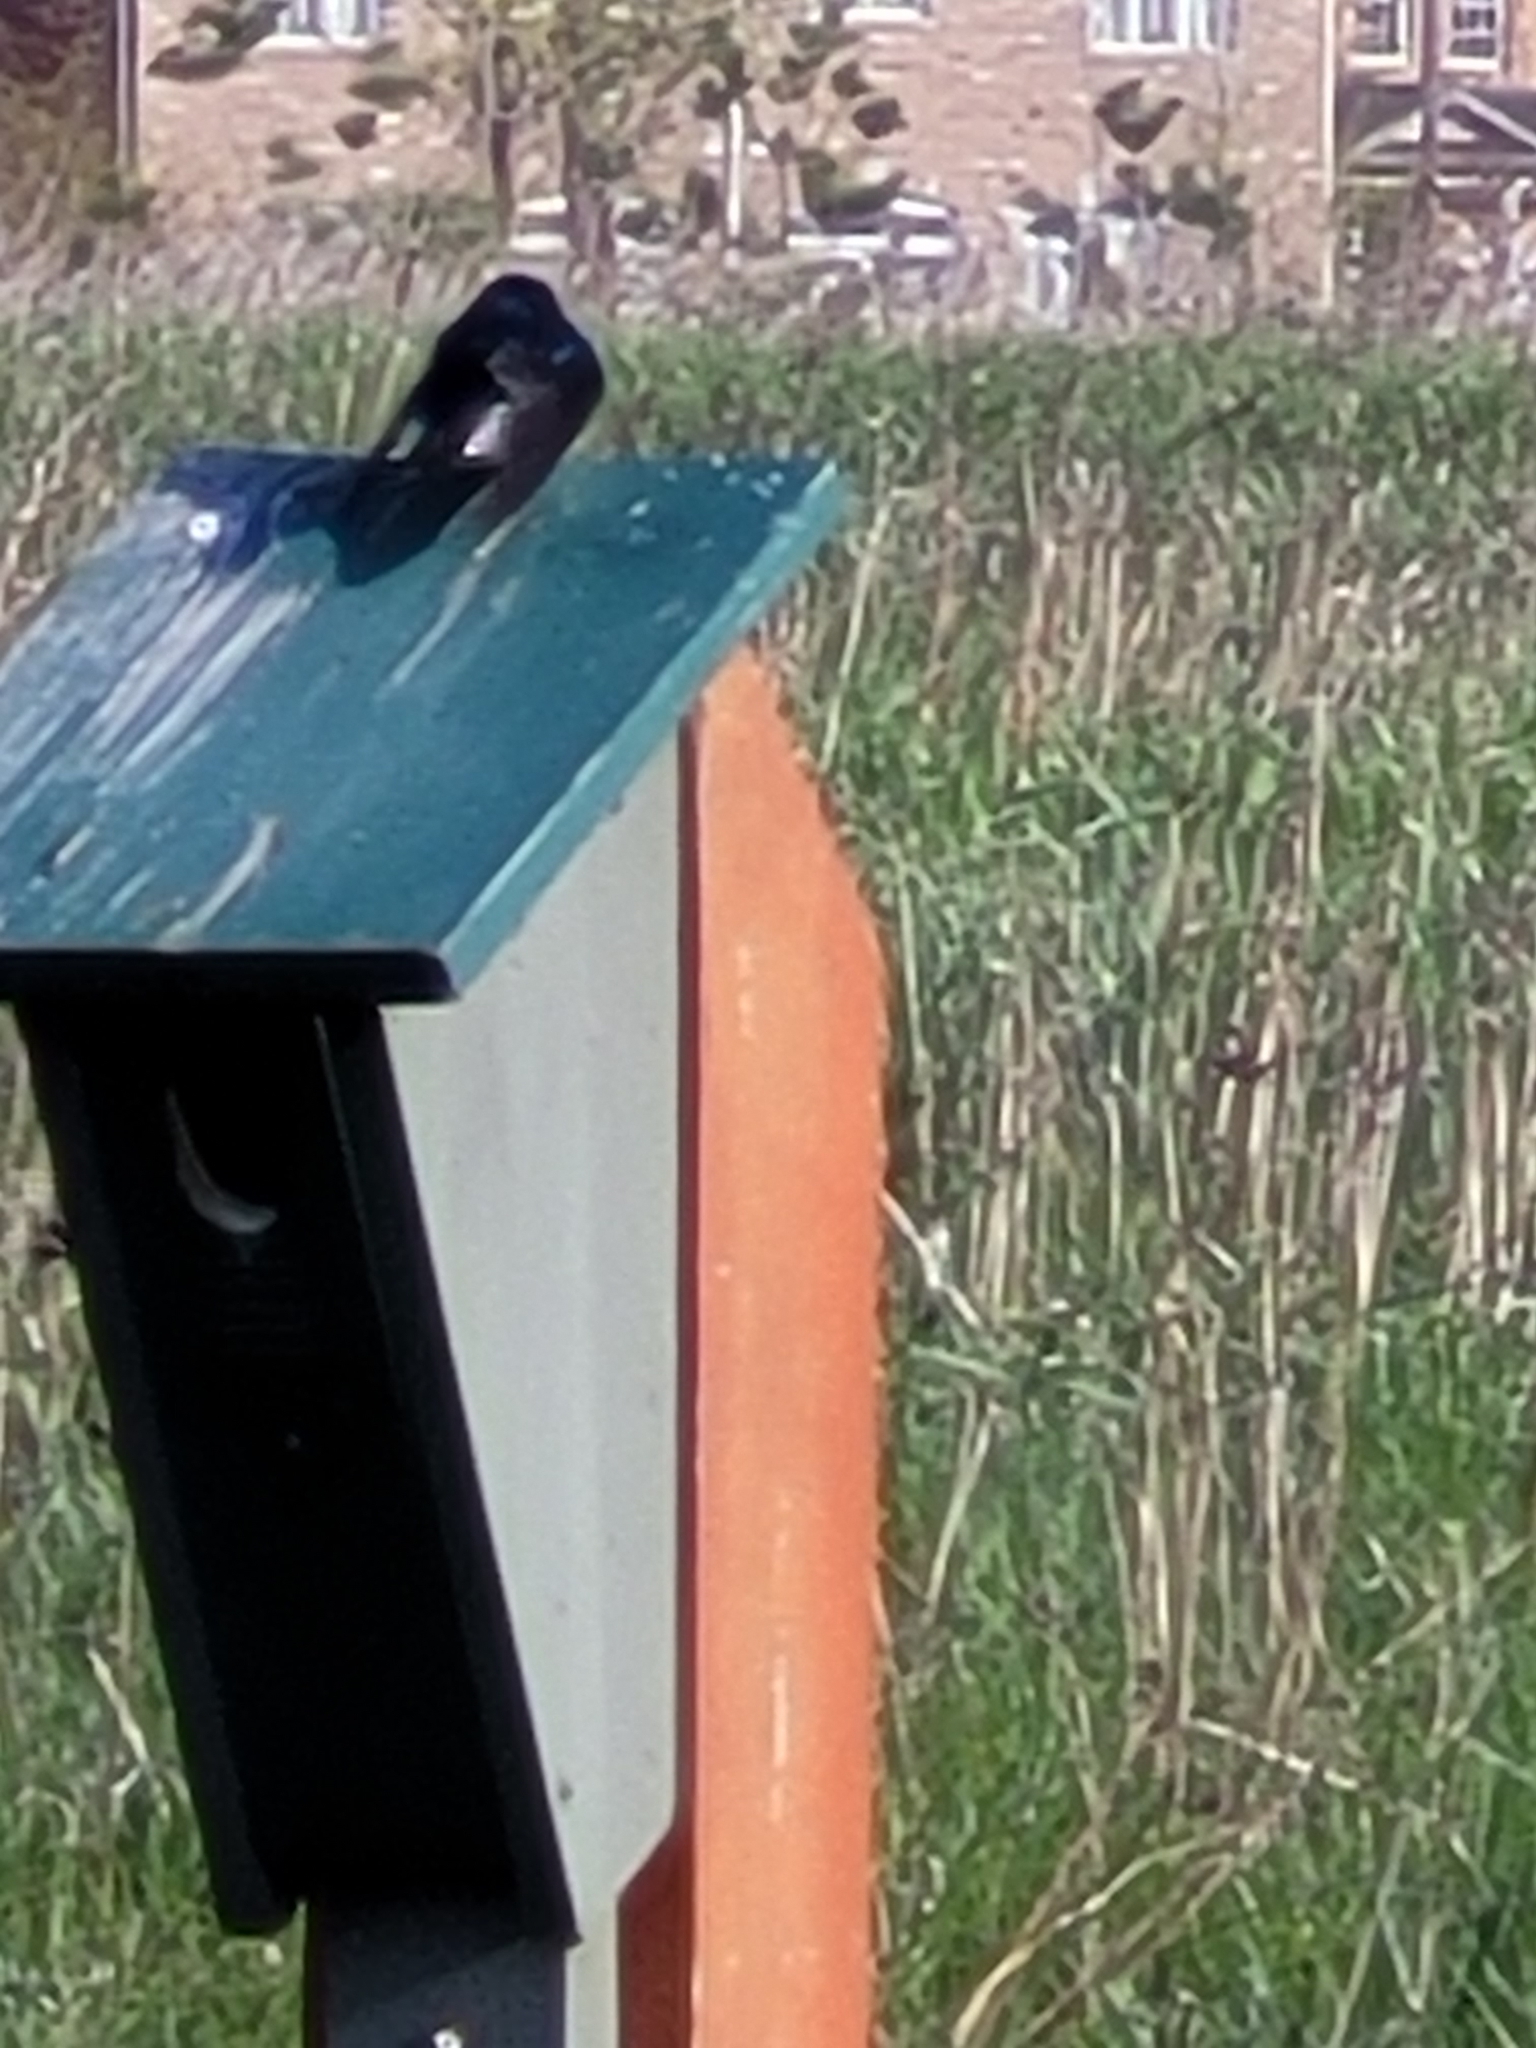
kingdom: Animalia
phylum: Chordata
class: Aves
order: Passeriformes
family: Hirundinidae
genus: Tachycineta
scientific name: Tachycineta bicolor
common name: Tree swallow
